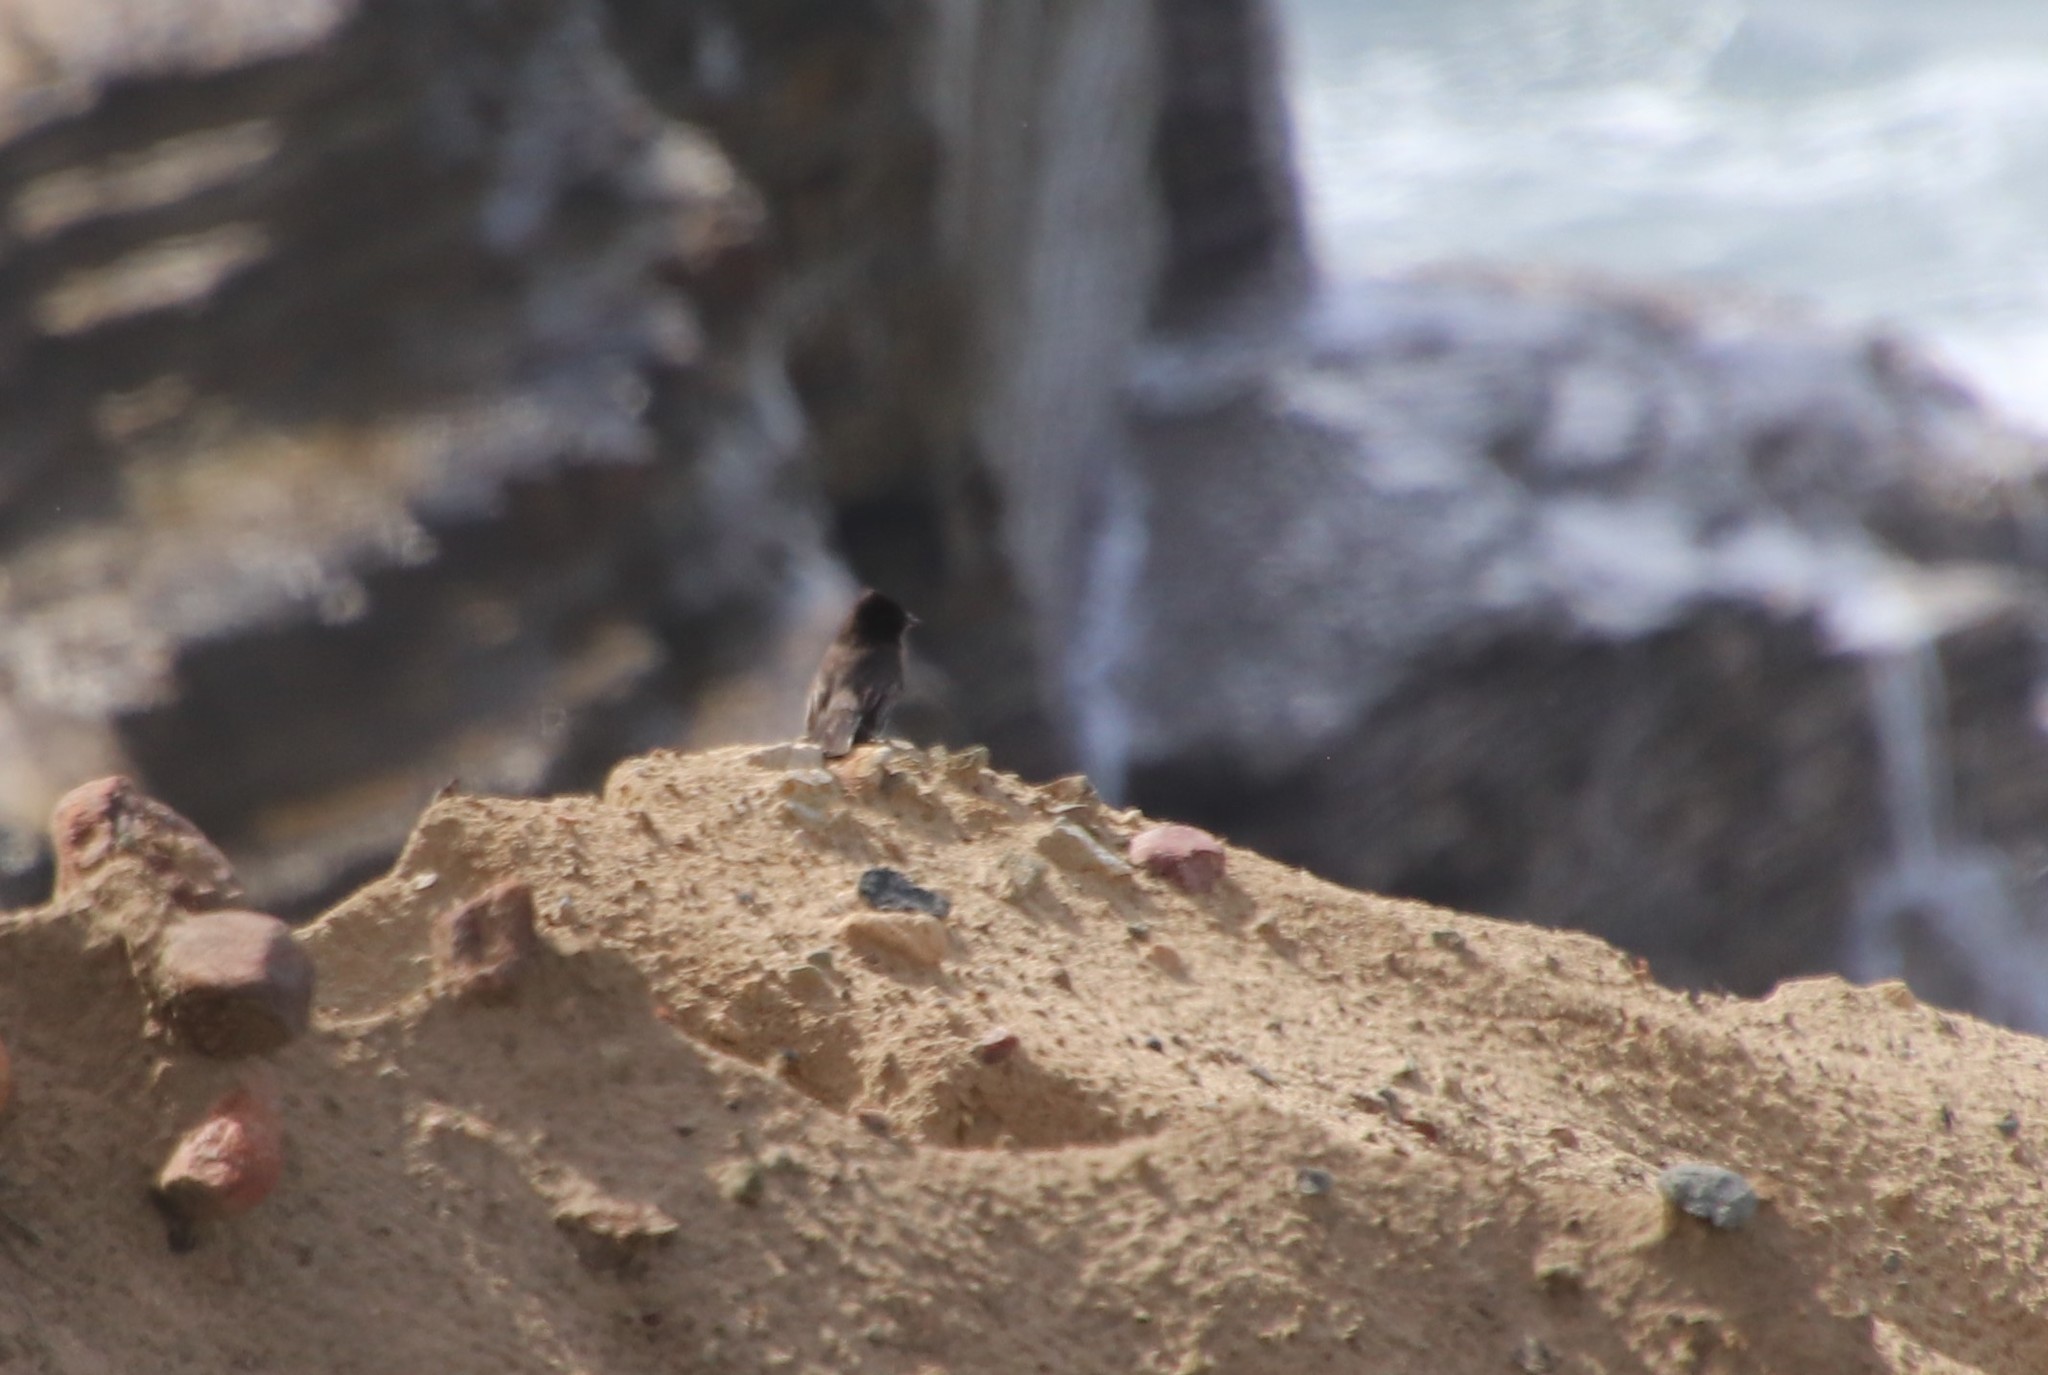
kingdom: Animalia
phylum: Chordata
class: Aves
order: Passeriformes
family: Tyrannidae
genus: Sayornis
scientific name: Sayornis nigricans
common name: Black phoebe
